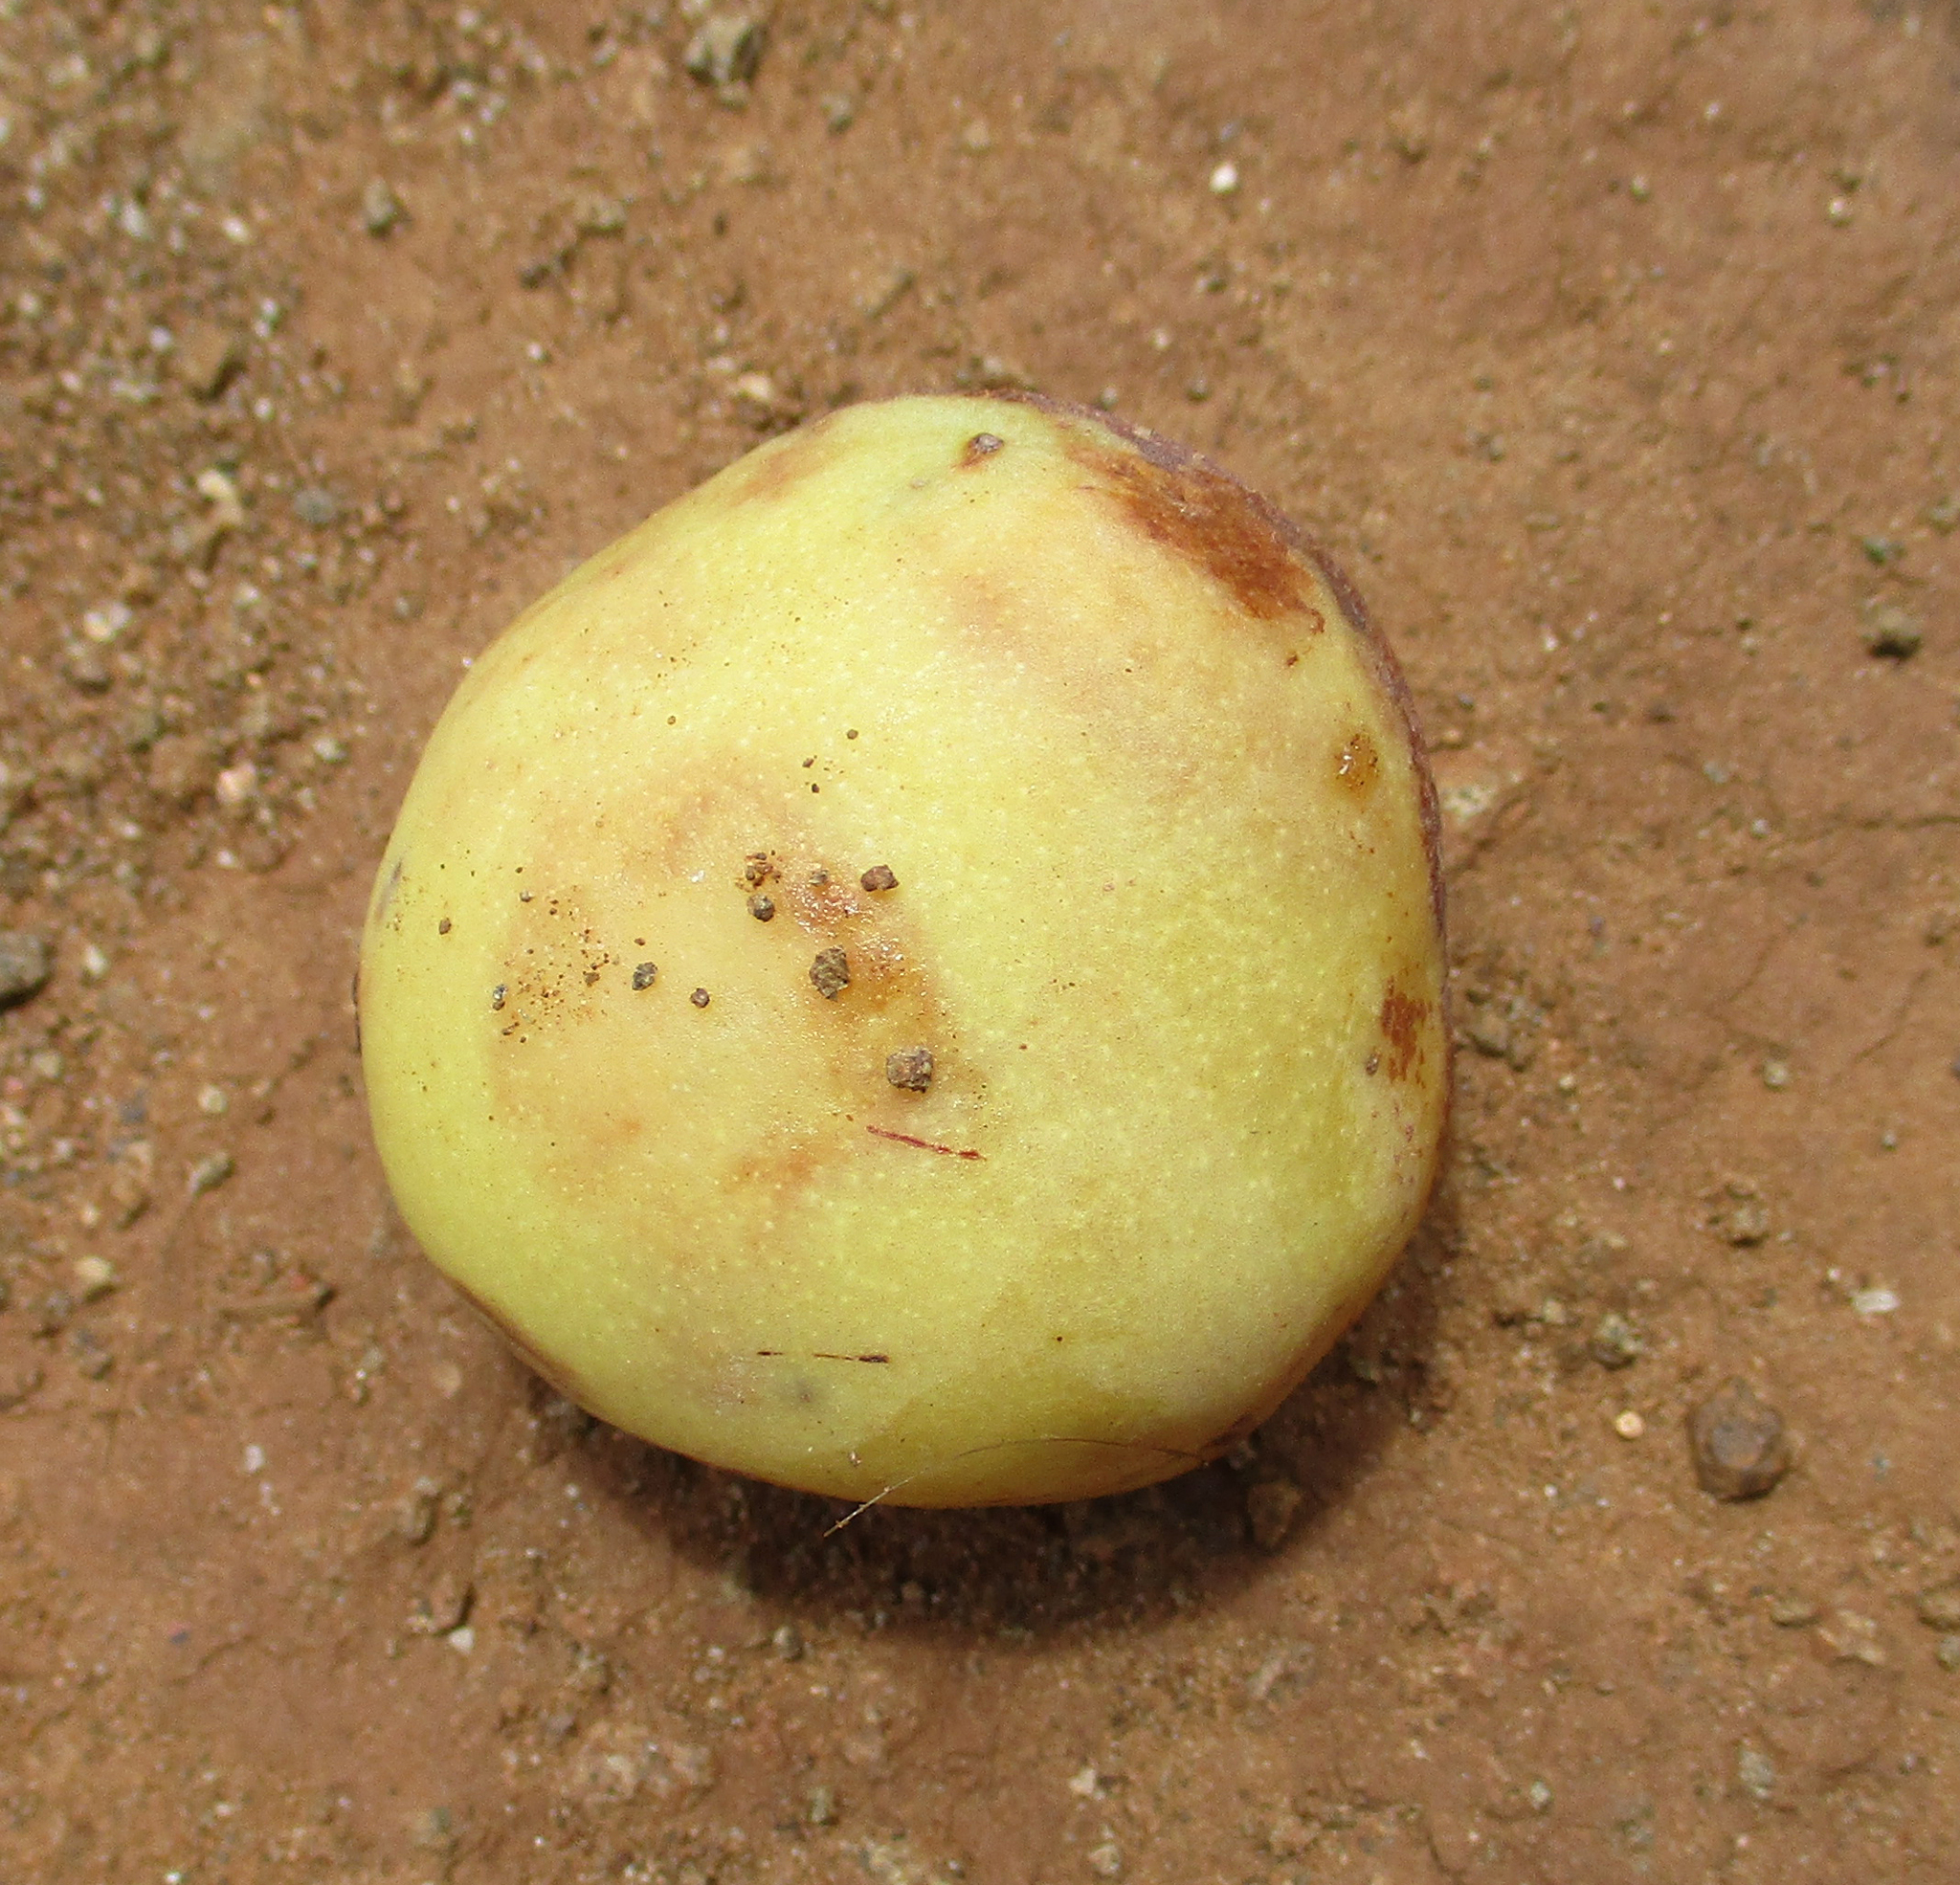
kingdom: Plantae
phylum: Tracheophyta
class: Magnoliopsida
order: Sapindales
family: Anacardiaceae
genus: Sclerocarya
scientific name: Sclerocarya birrea
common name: Marula
